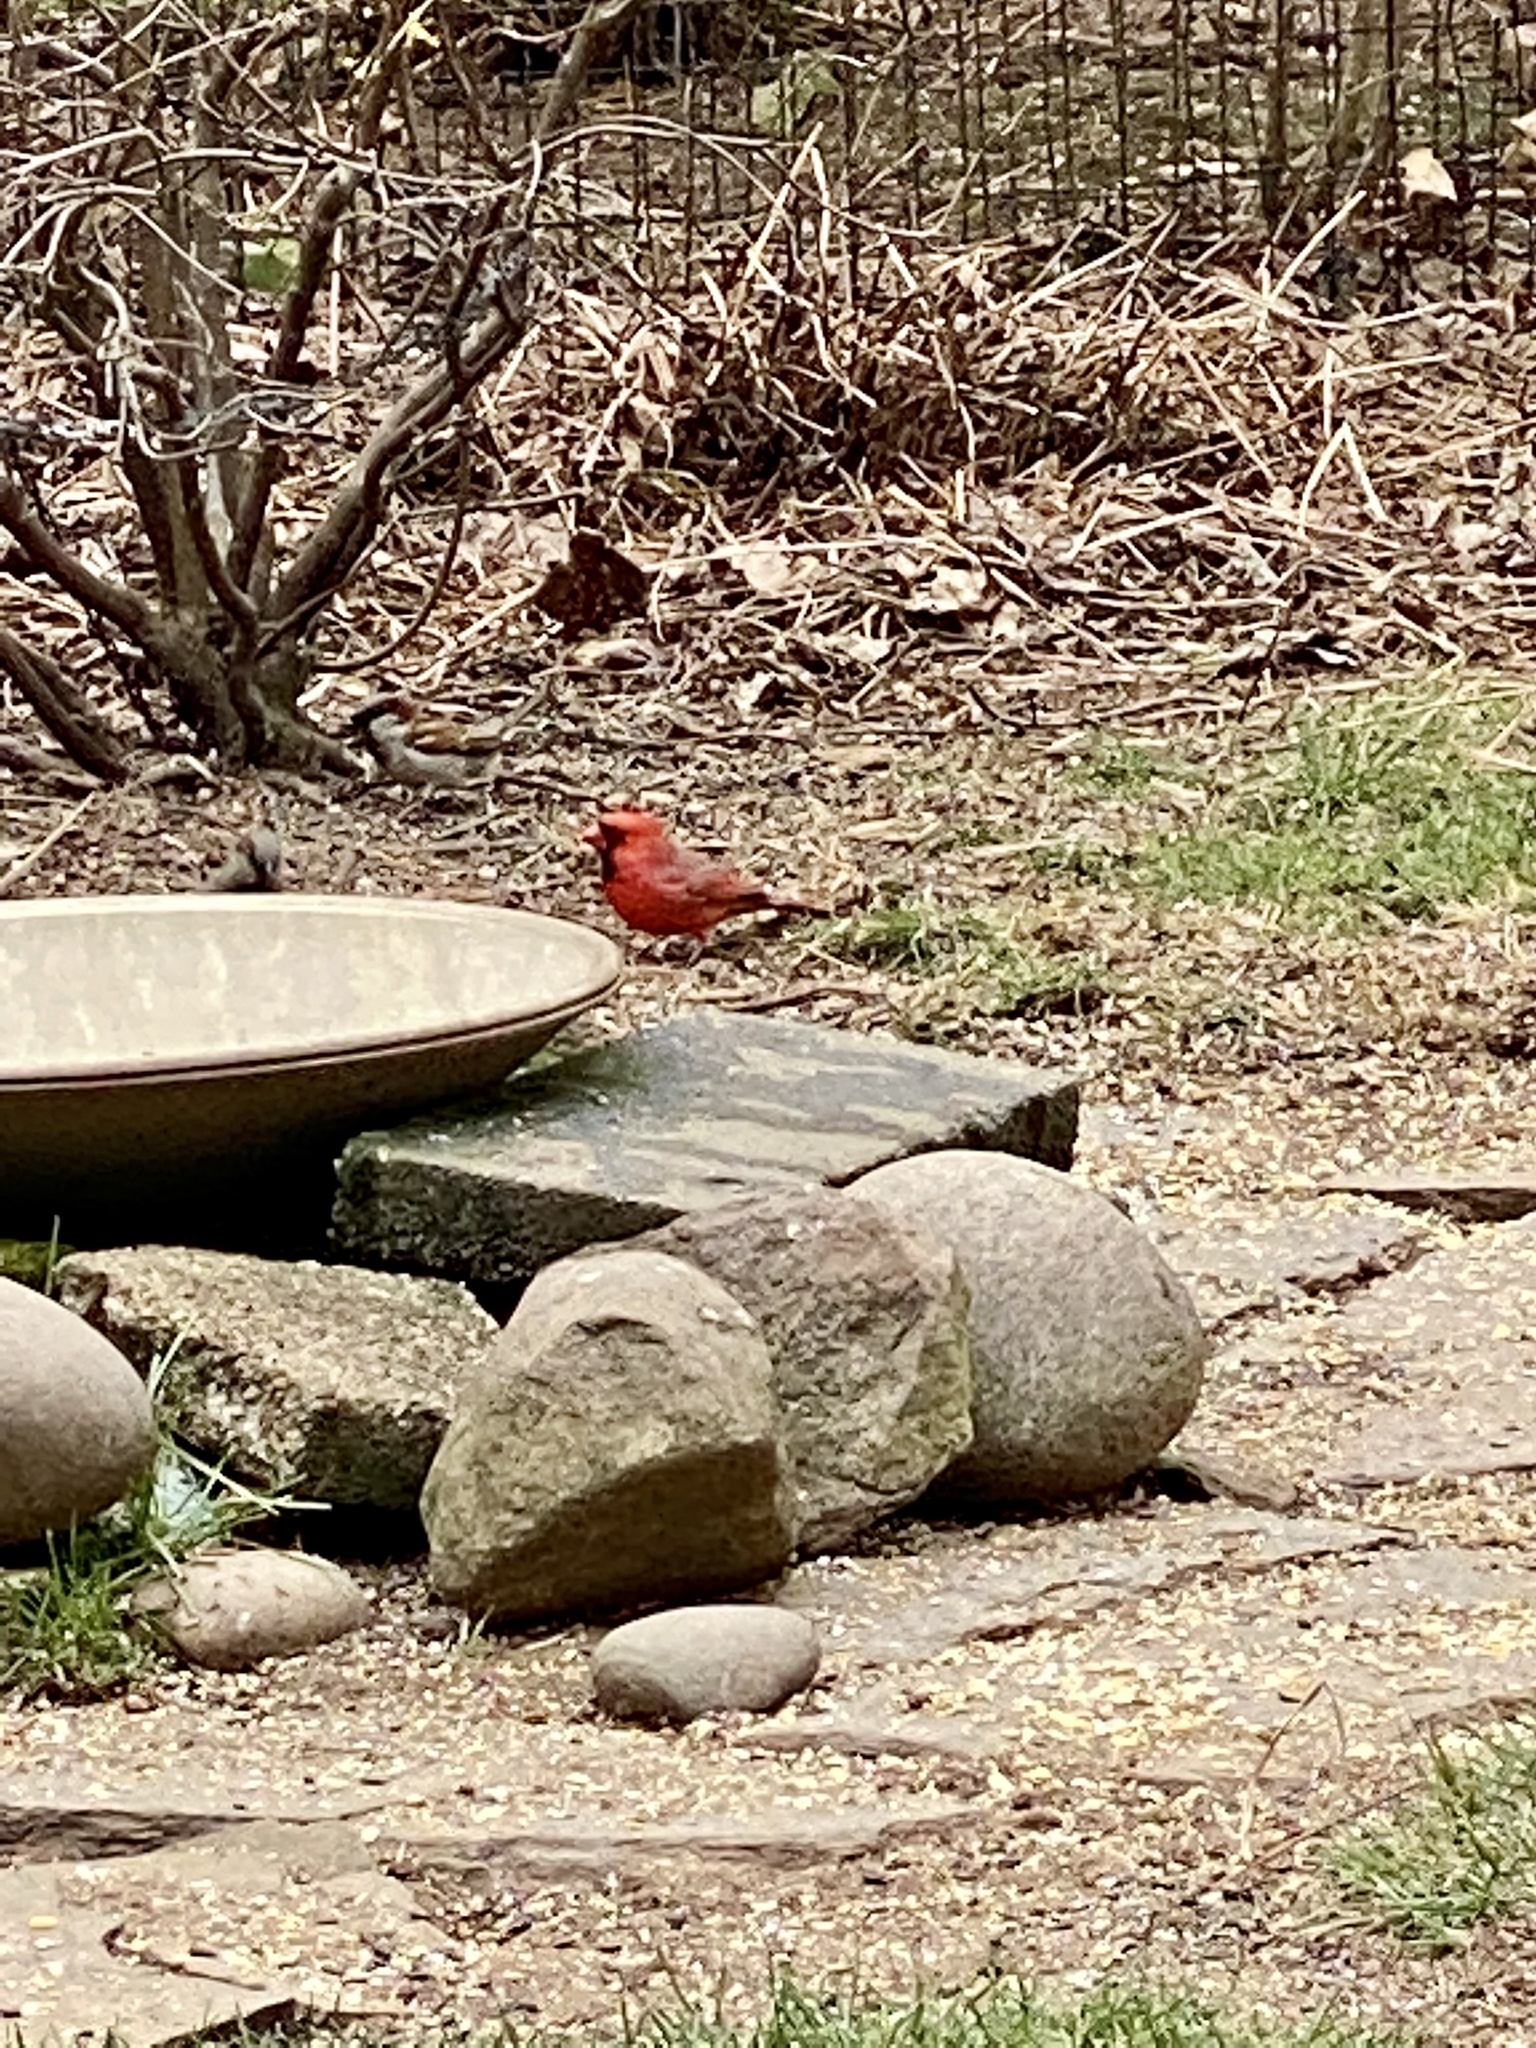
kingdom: Animalia
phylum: Chordata
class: Aves
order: Passeriformes
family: Cardinalidae
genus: Cardinalis
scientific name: Cardinalis cardinalis
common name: Northern cardinal
